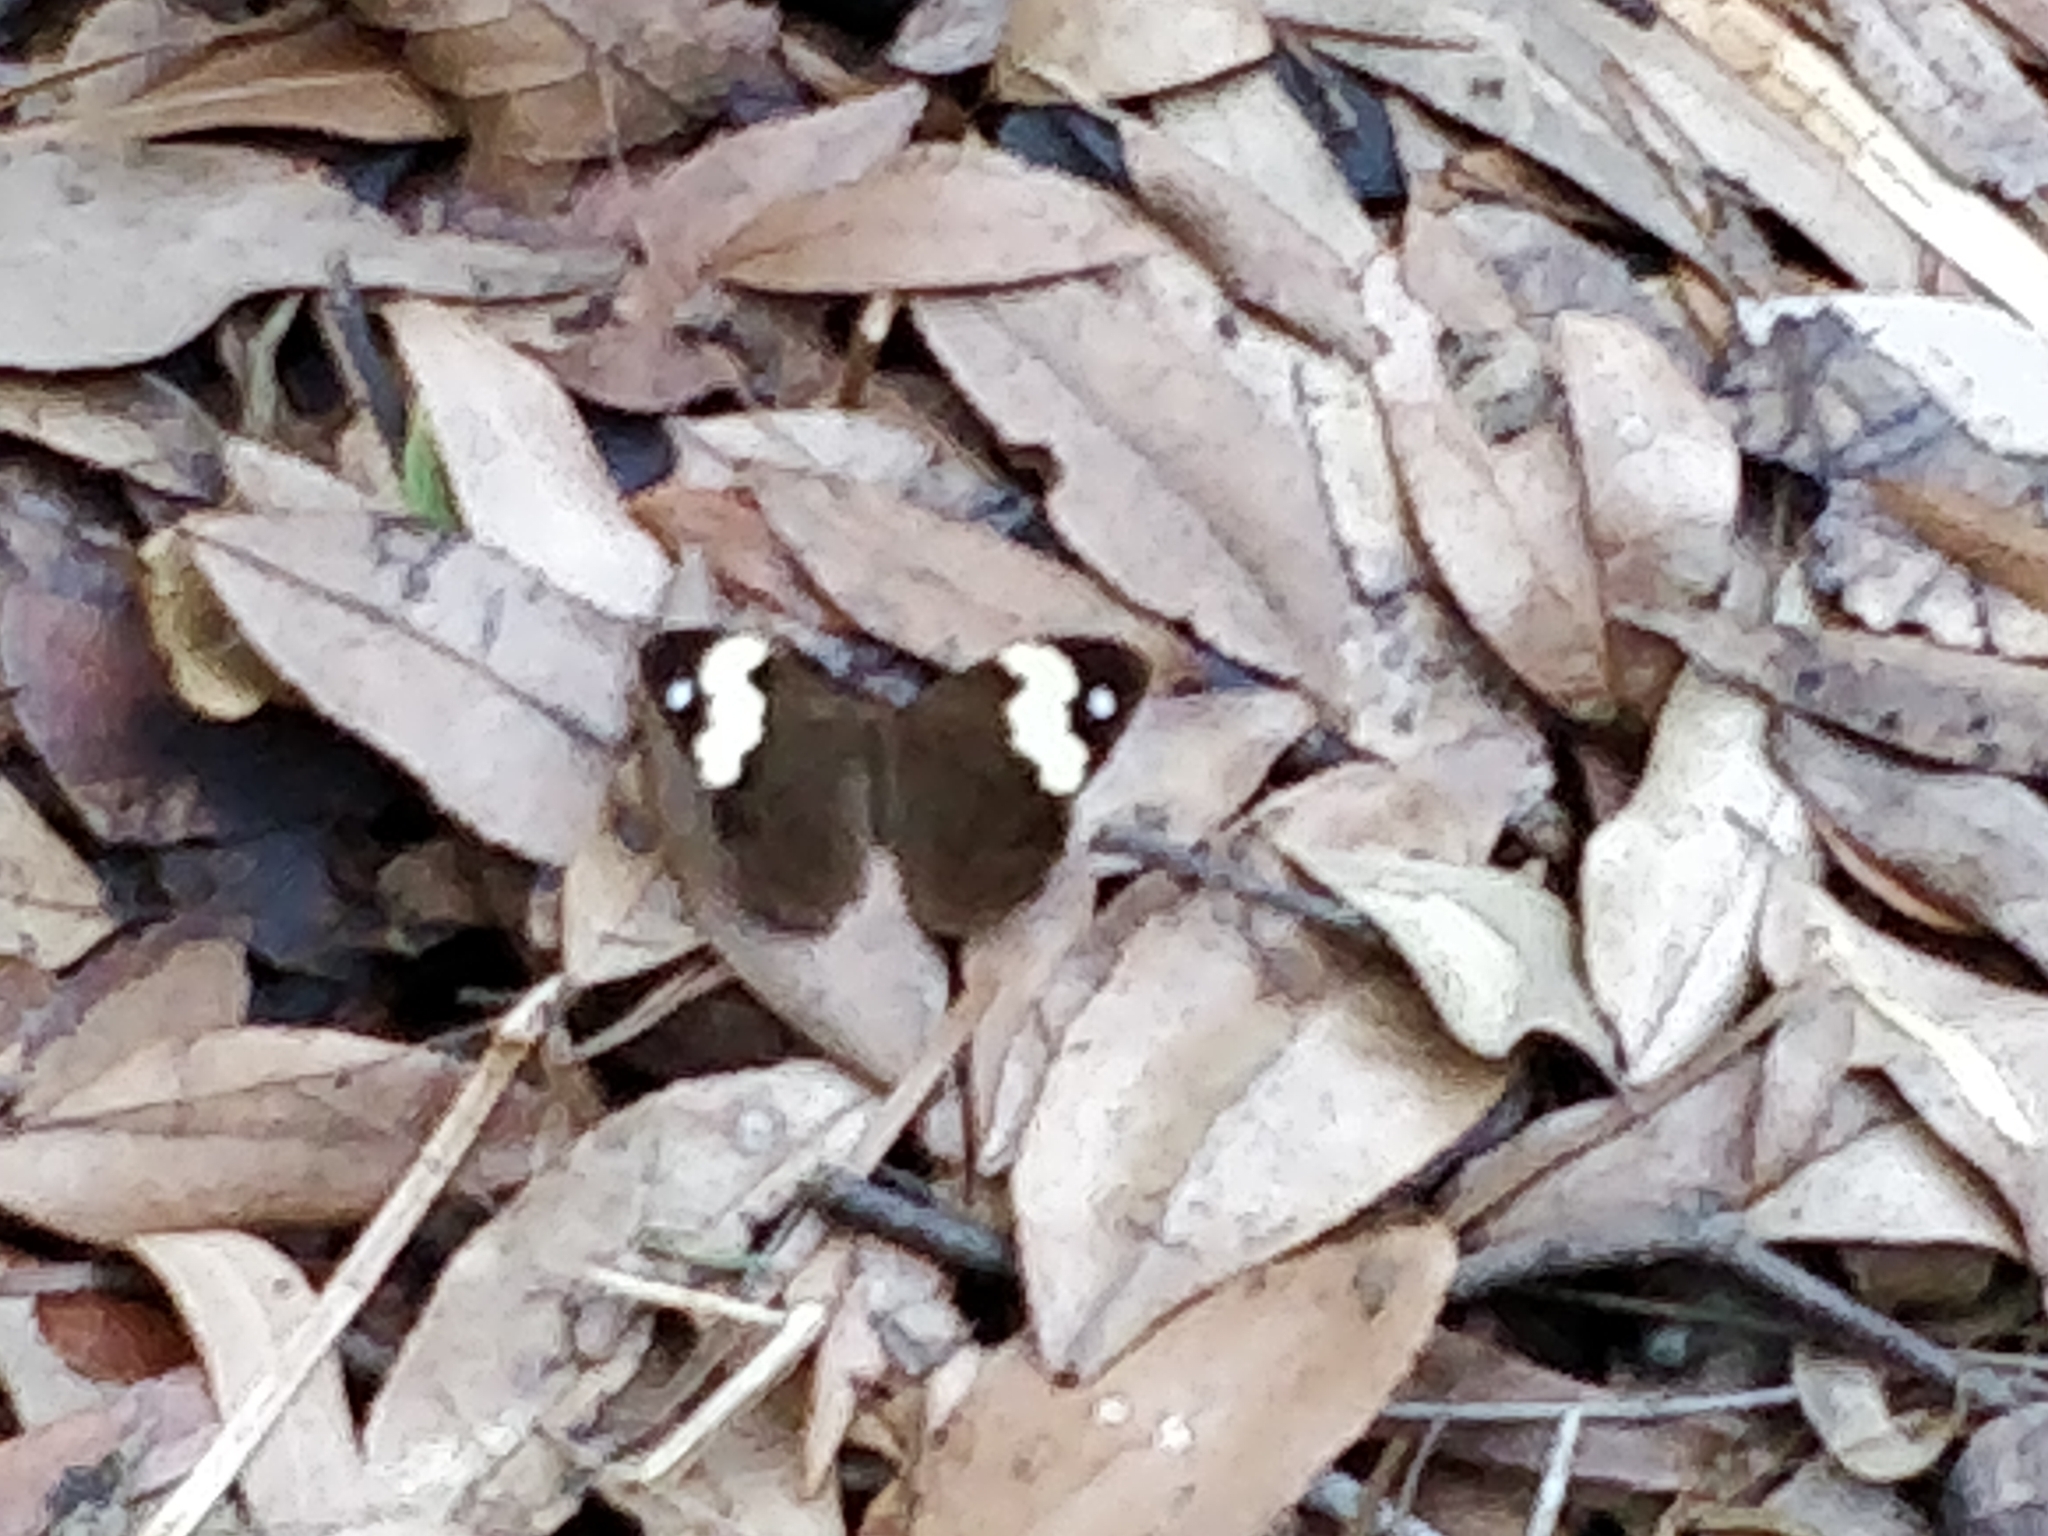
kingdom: Animalia
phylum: Arthropoda
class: Insecta
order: Lepidoptera
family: Nymphalidae
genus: Heteronympha
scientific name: Heteronympha mirifica
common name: Wonder brown
